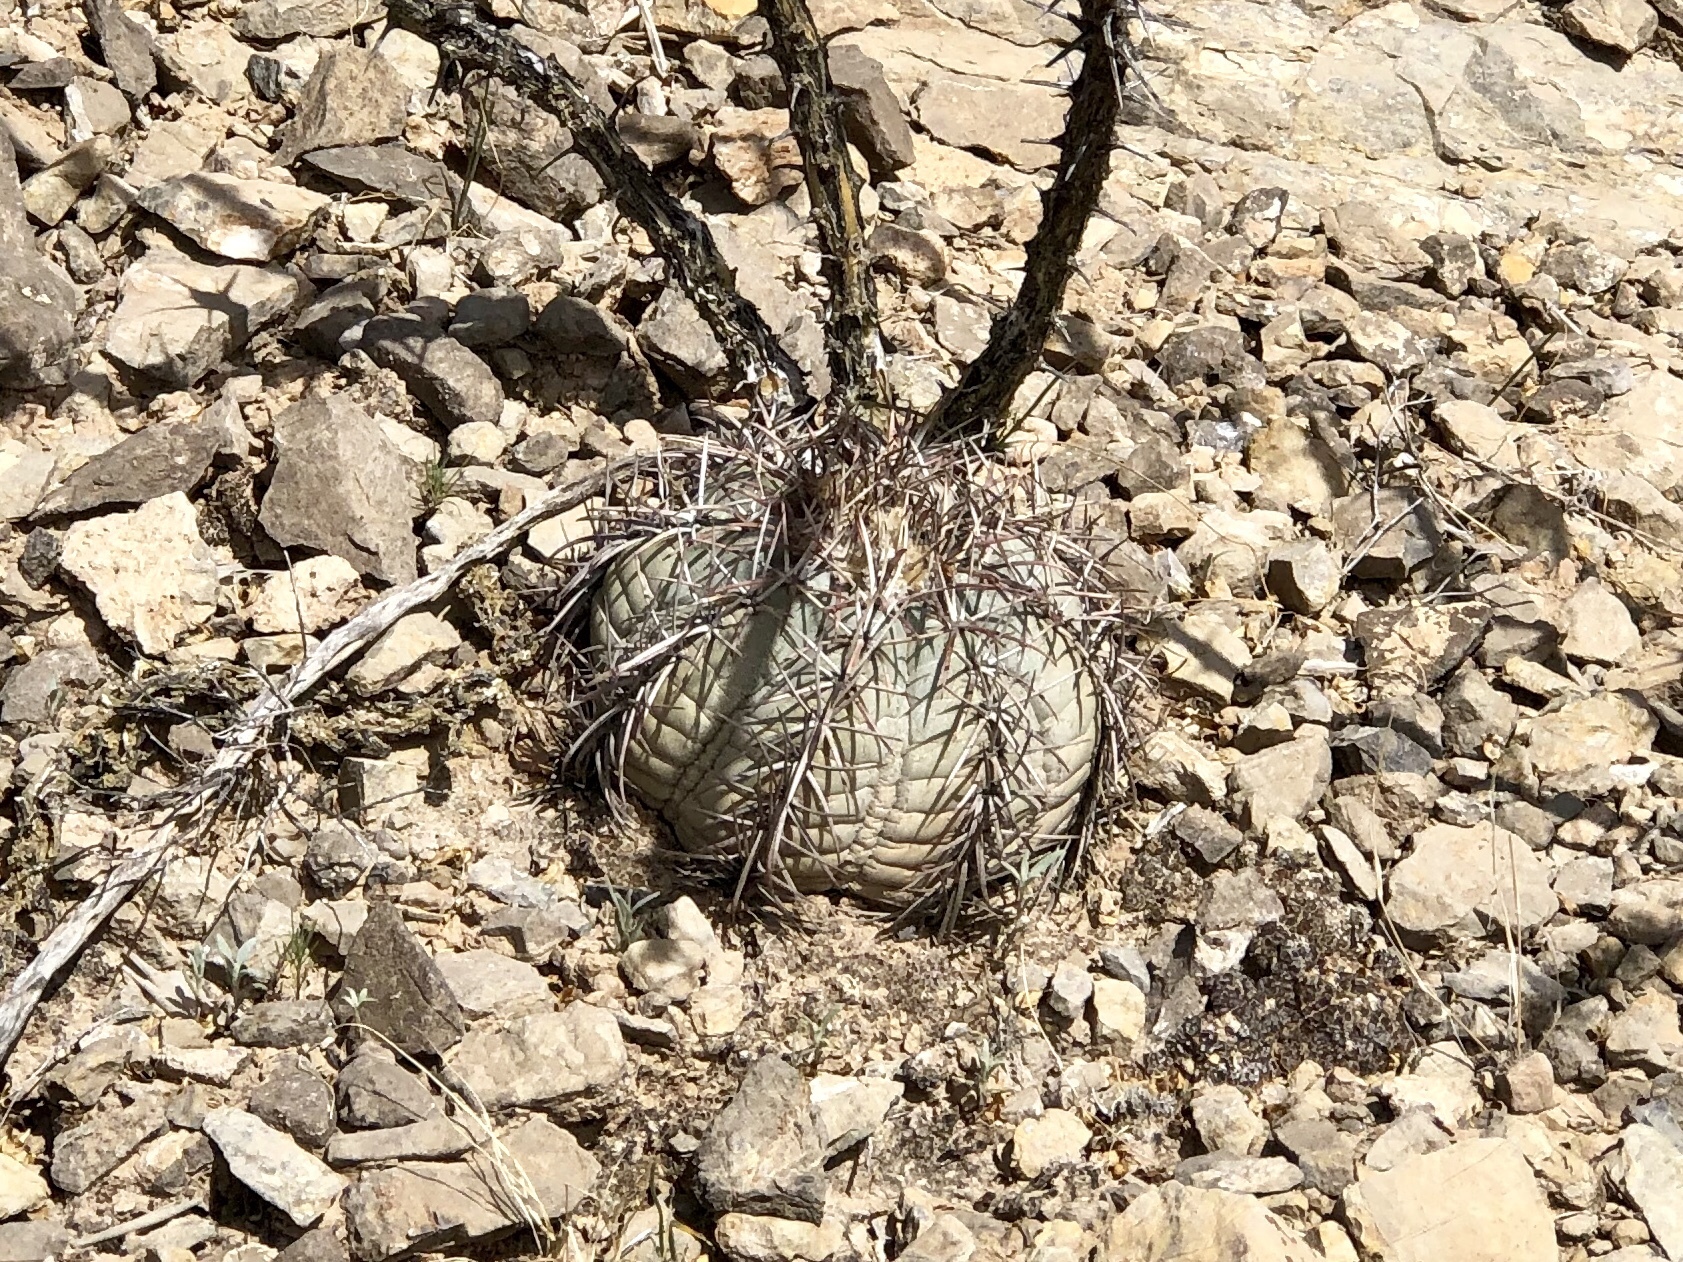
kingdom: Plantae
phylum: Tracheophyta
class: Magnoliopsida
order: Caryophyllales
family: Cactaceae
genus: Echinocactus
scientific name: Echinocactus horizonthalonius
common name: Devilshead
